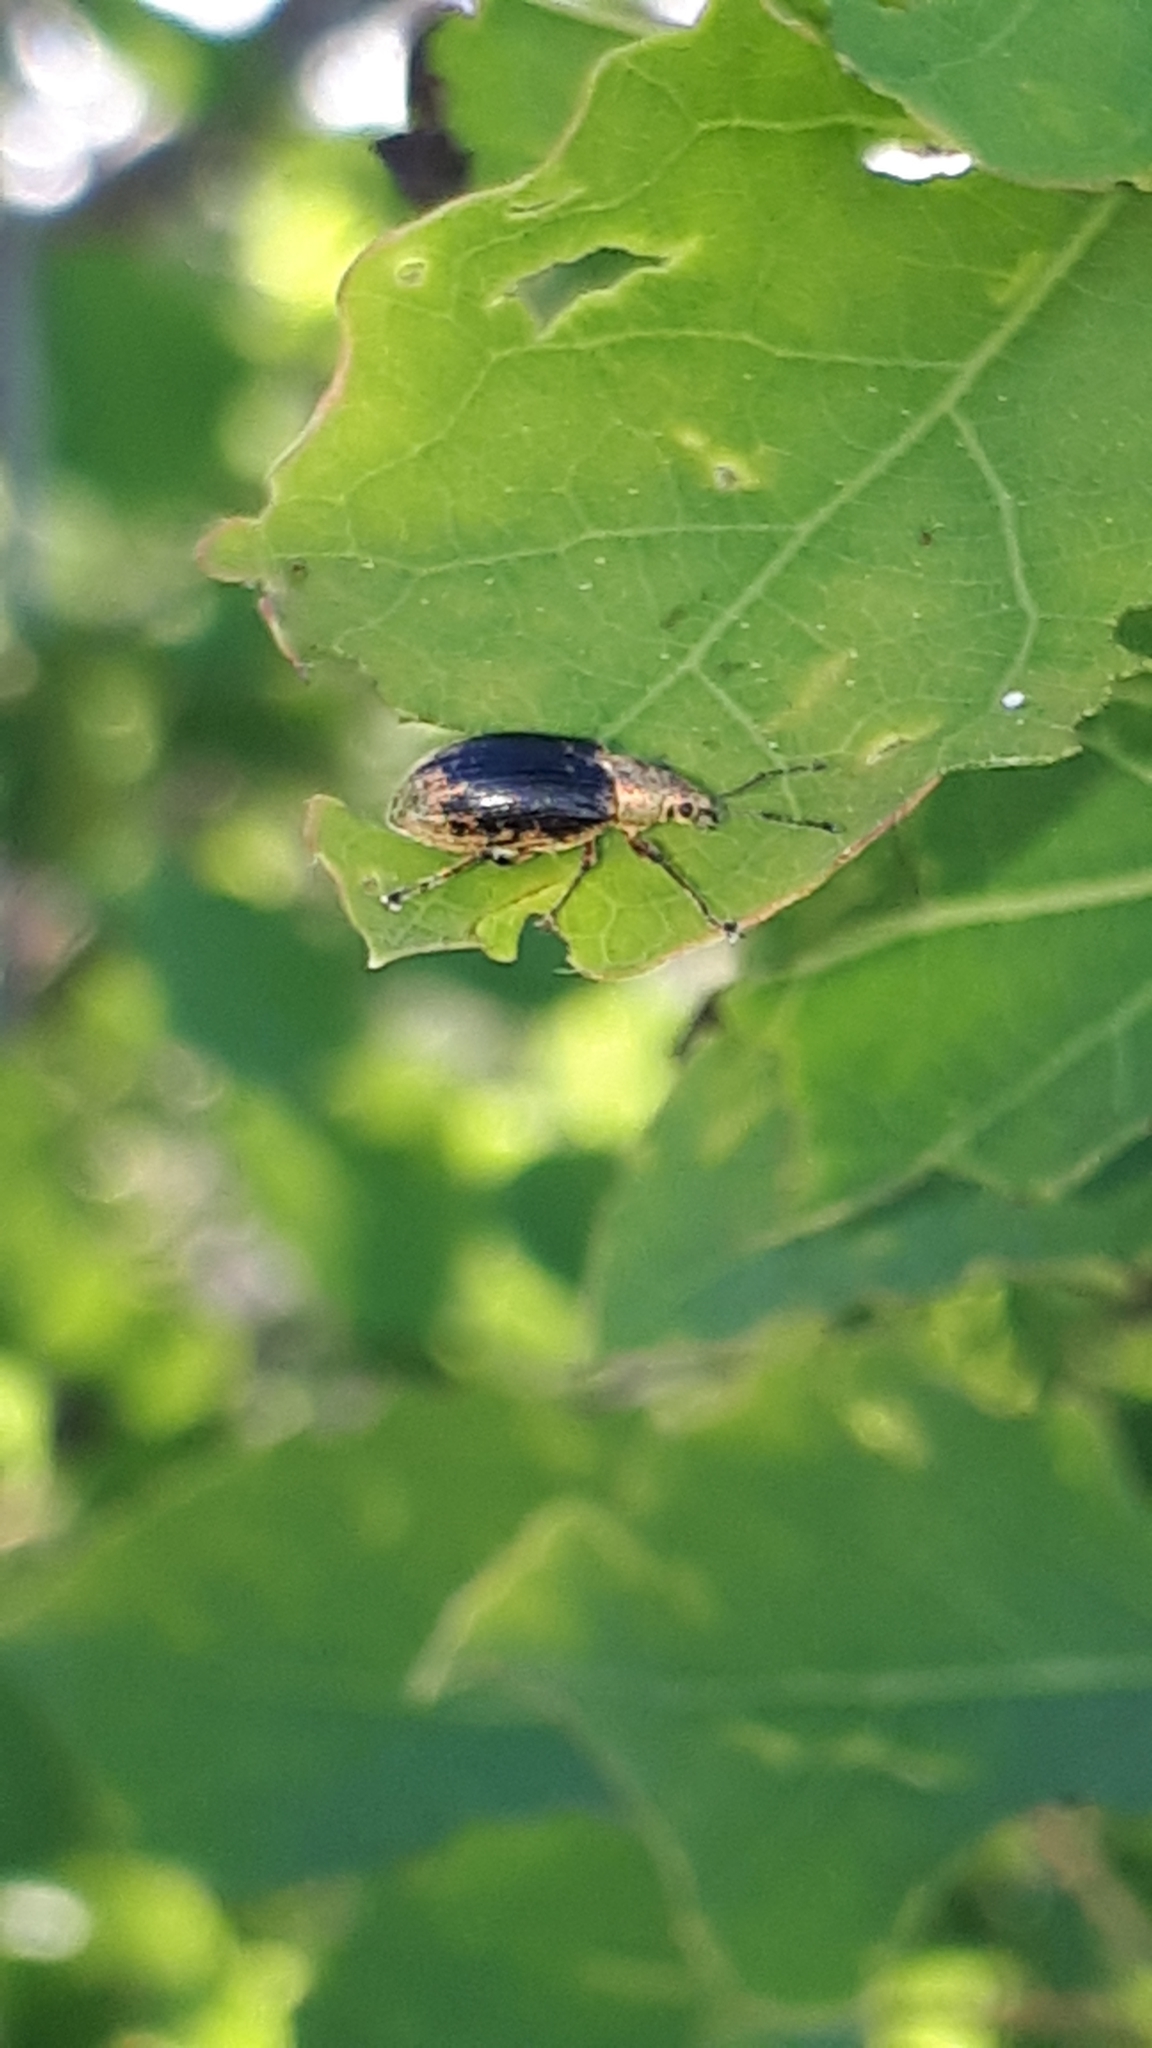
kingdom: Animalia
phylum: Arthropoda
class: Insecta
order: Coleoptera
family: Curculionidae
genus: Phyllobius
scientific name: Phyllobius pyri
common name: Common leaf weevil
